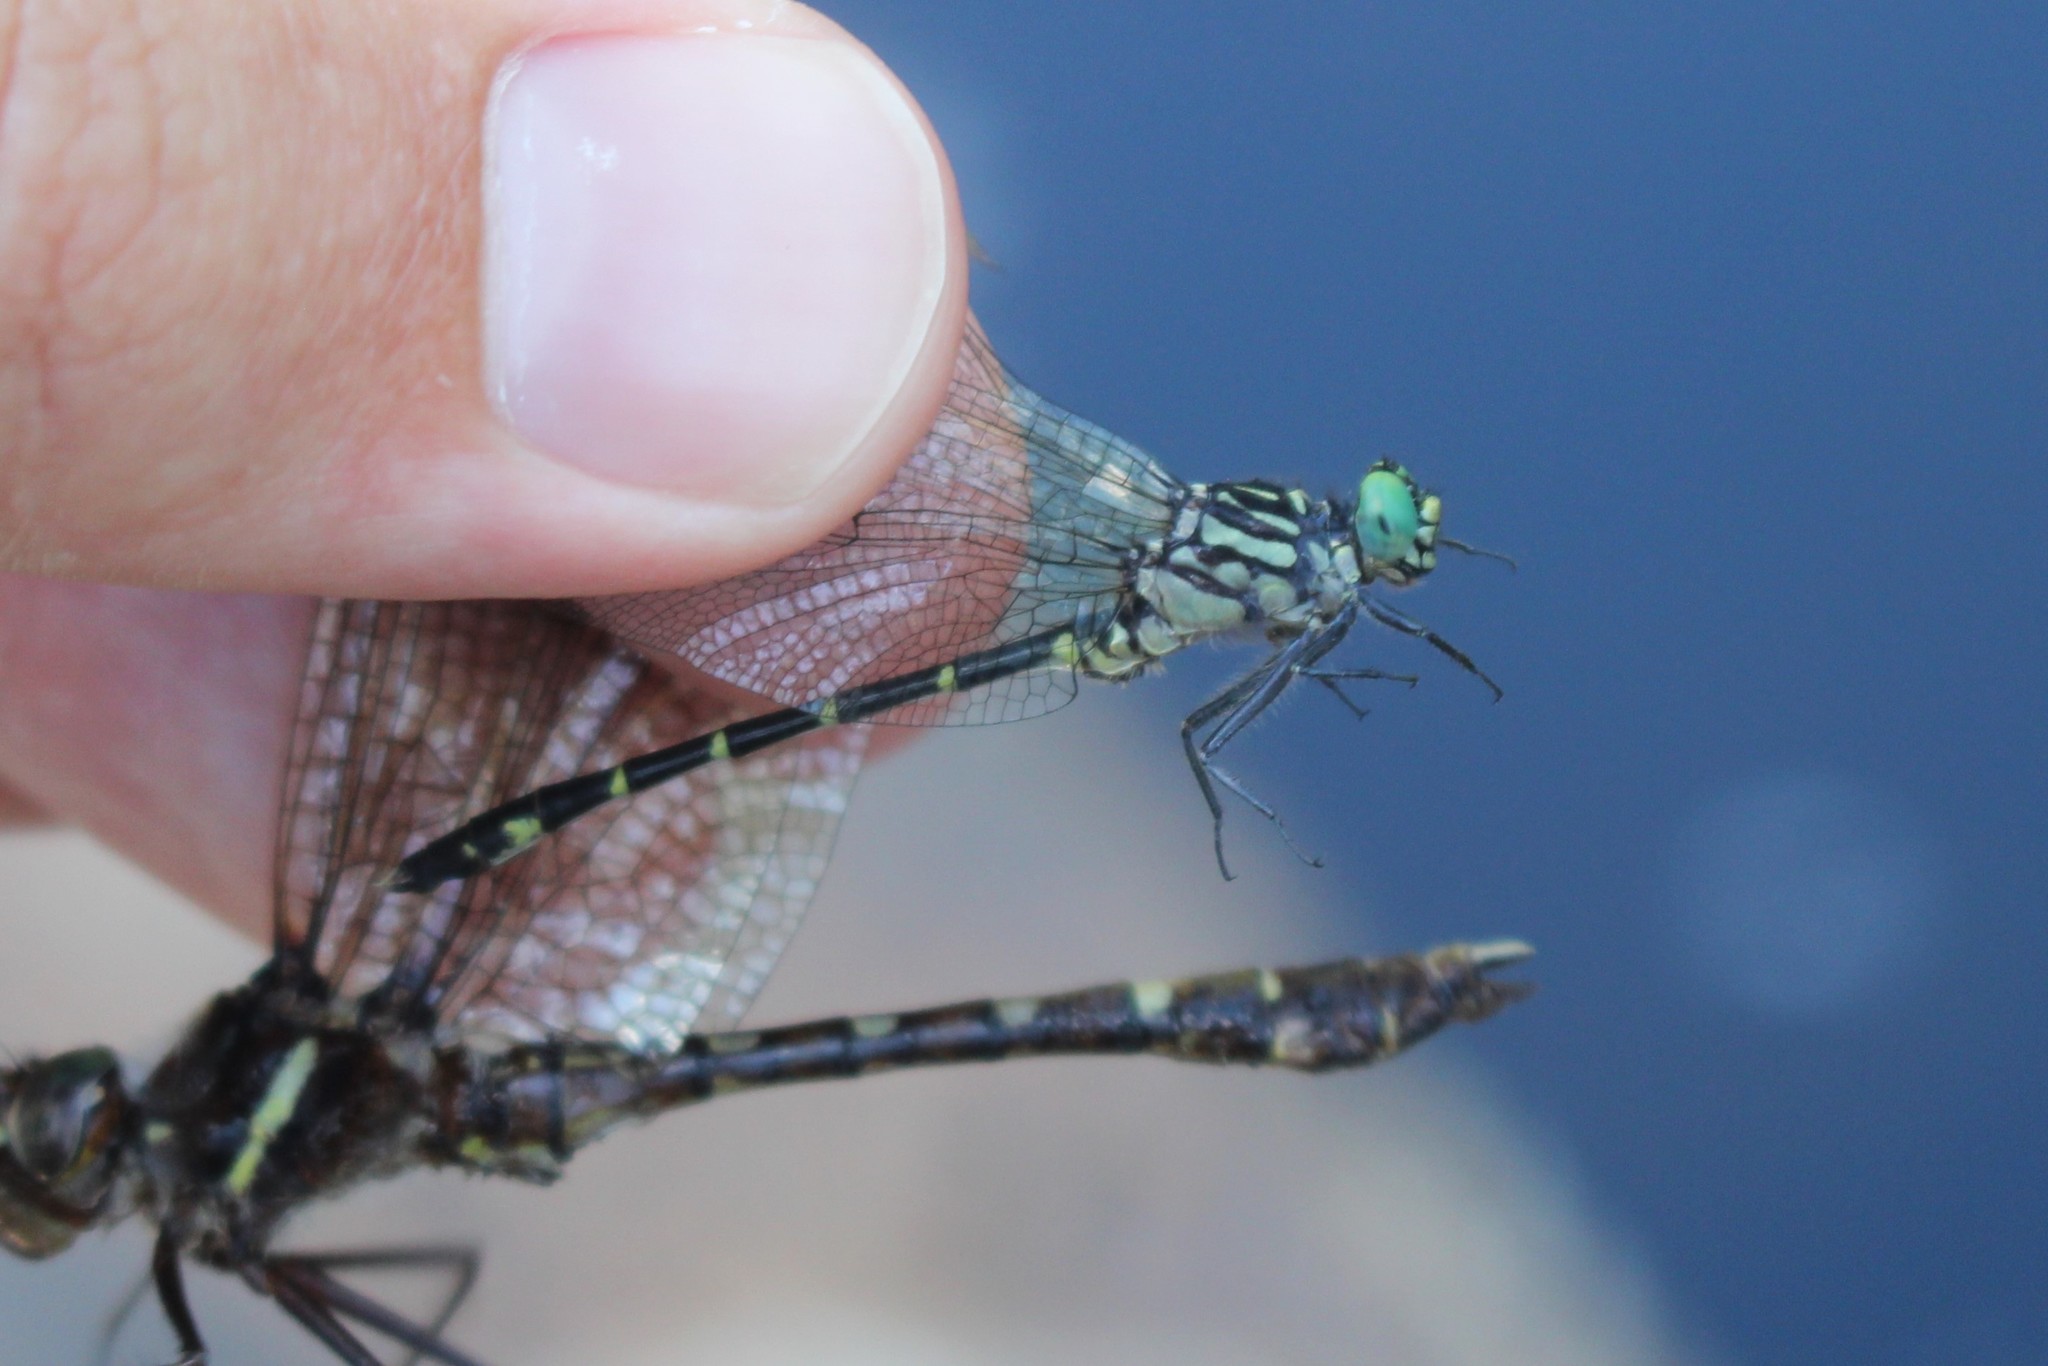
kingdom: Animalia
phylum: Arthropoda
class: Insecta
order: Odonata
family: Gomphidae
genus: Stylogomphus
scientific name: Stylogomphus albistylus
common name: Eastern least clubtail
